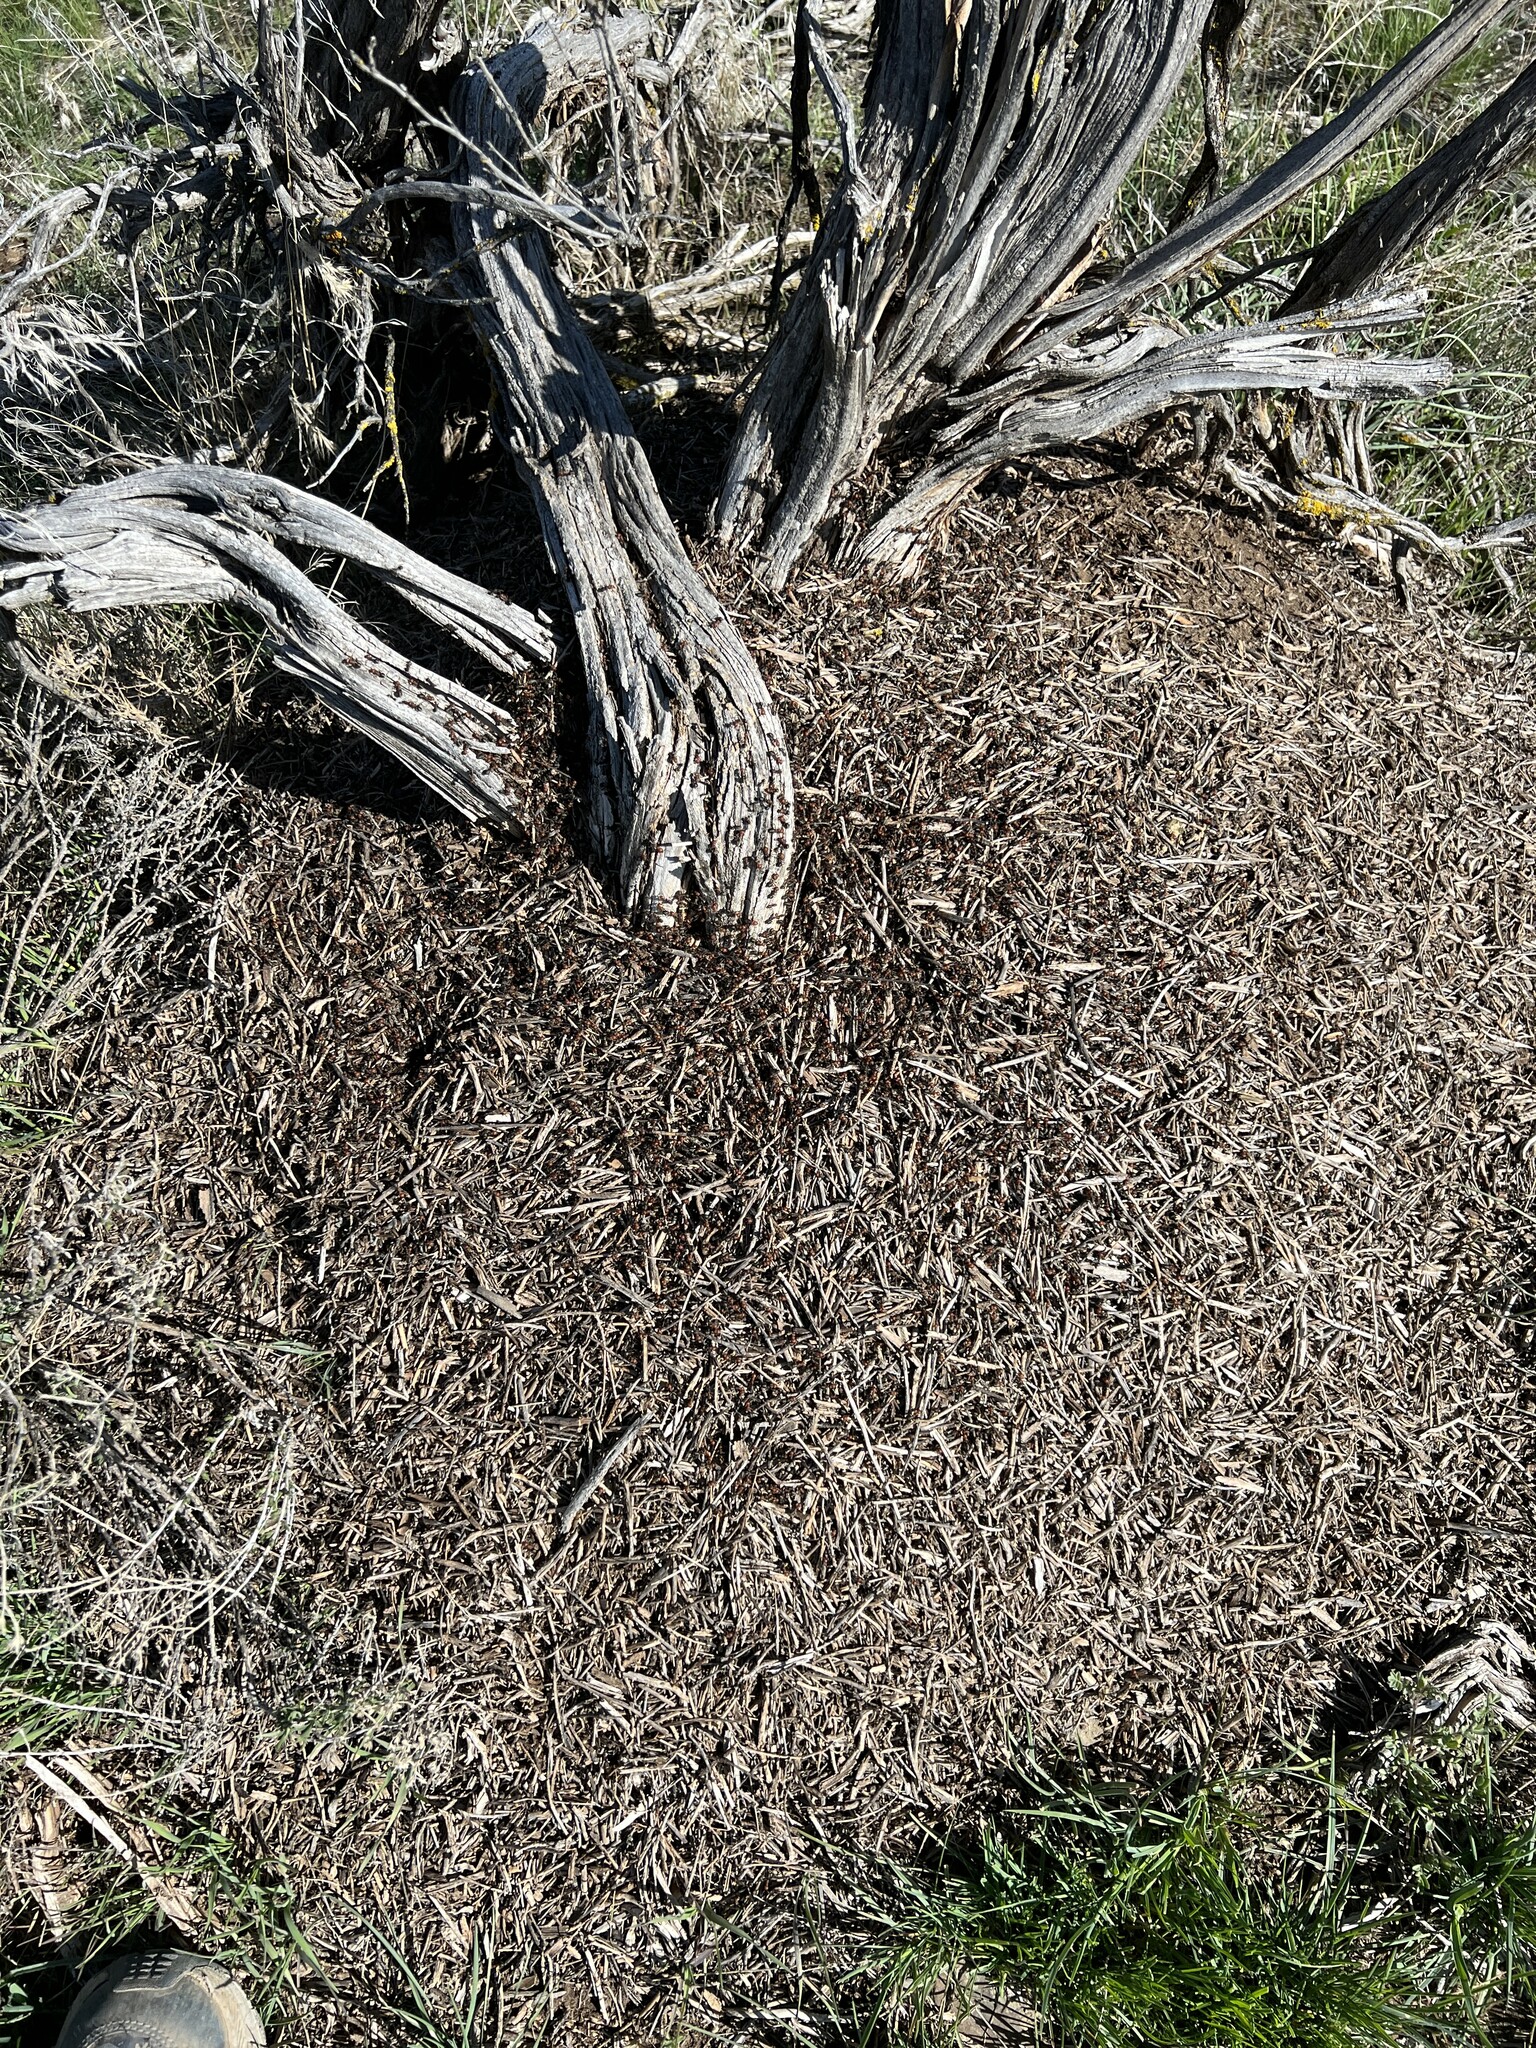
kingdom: Animalia
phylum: Arthropoda
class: Insecta
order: Hymenoptera
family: Formicidae
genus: Formica
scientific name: Formica obscuripes
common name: Western thatching ant
